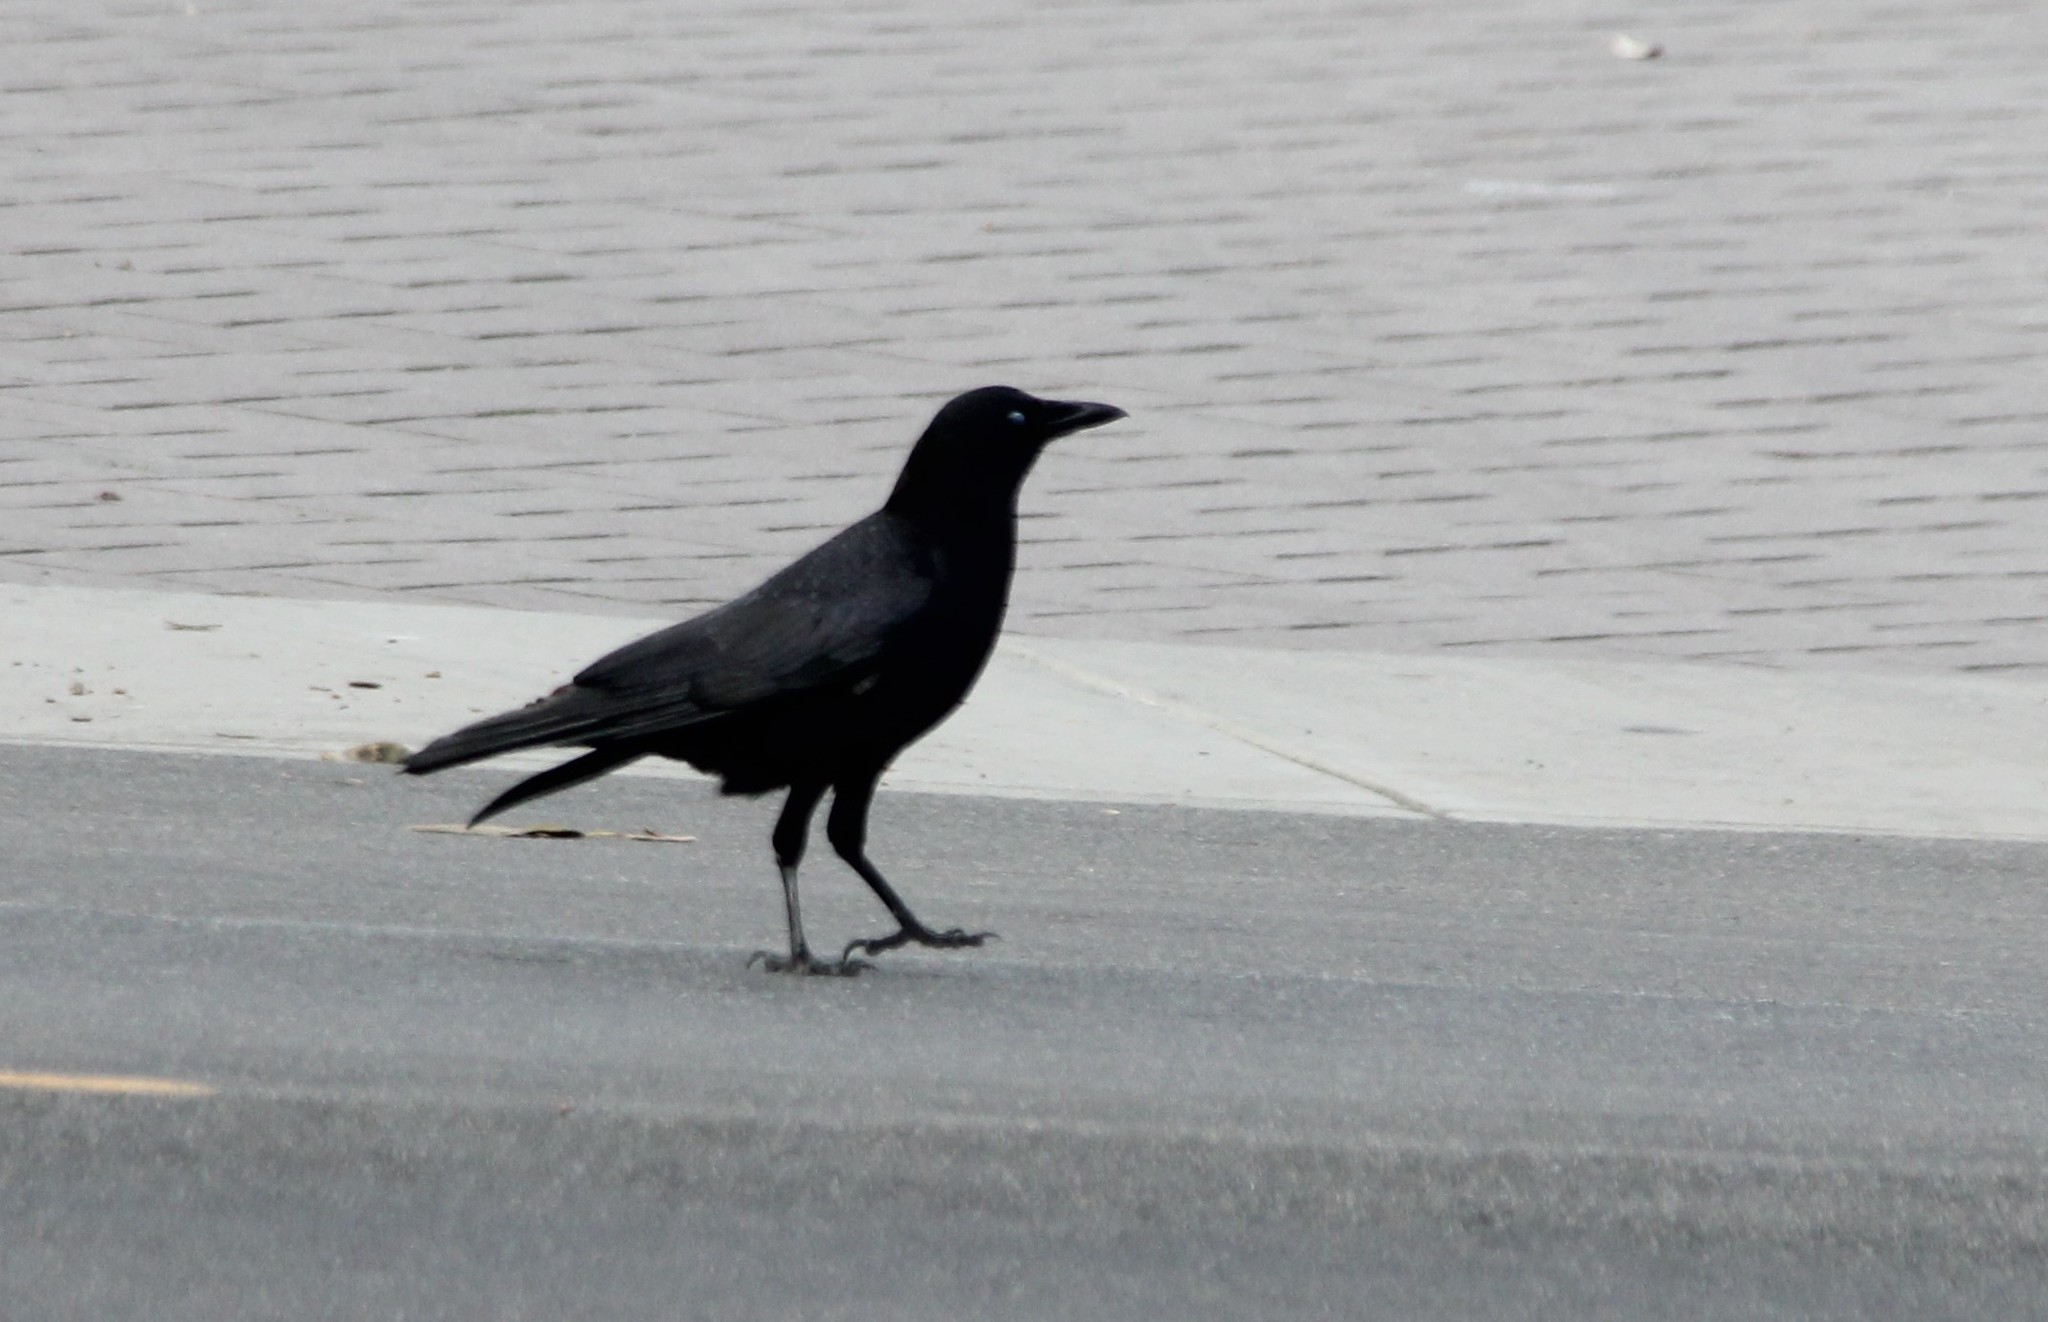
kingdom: Animalia
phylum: Chordata
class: Aves
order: Passeriformes
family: Corvidae
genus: Corvus
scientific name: Corvus brachyrhynchos
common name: American crow
